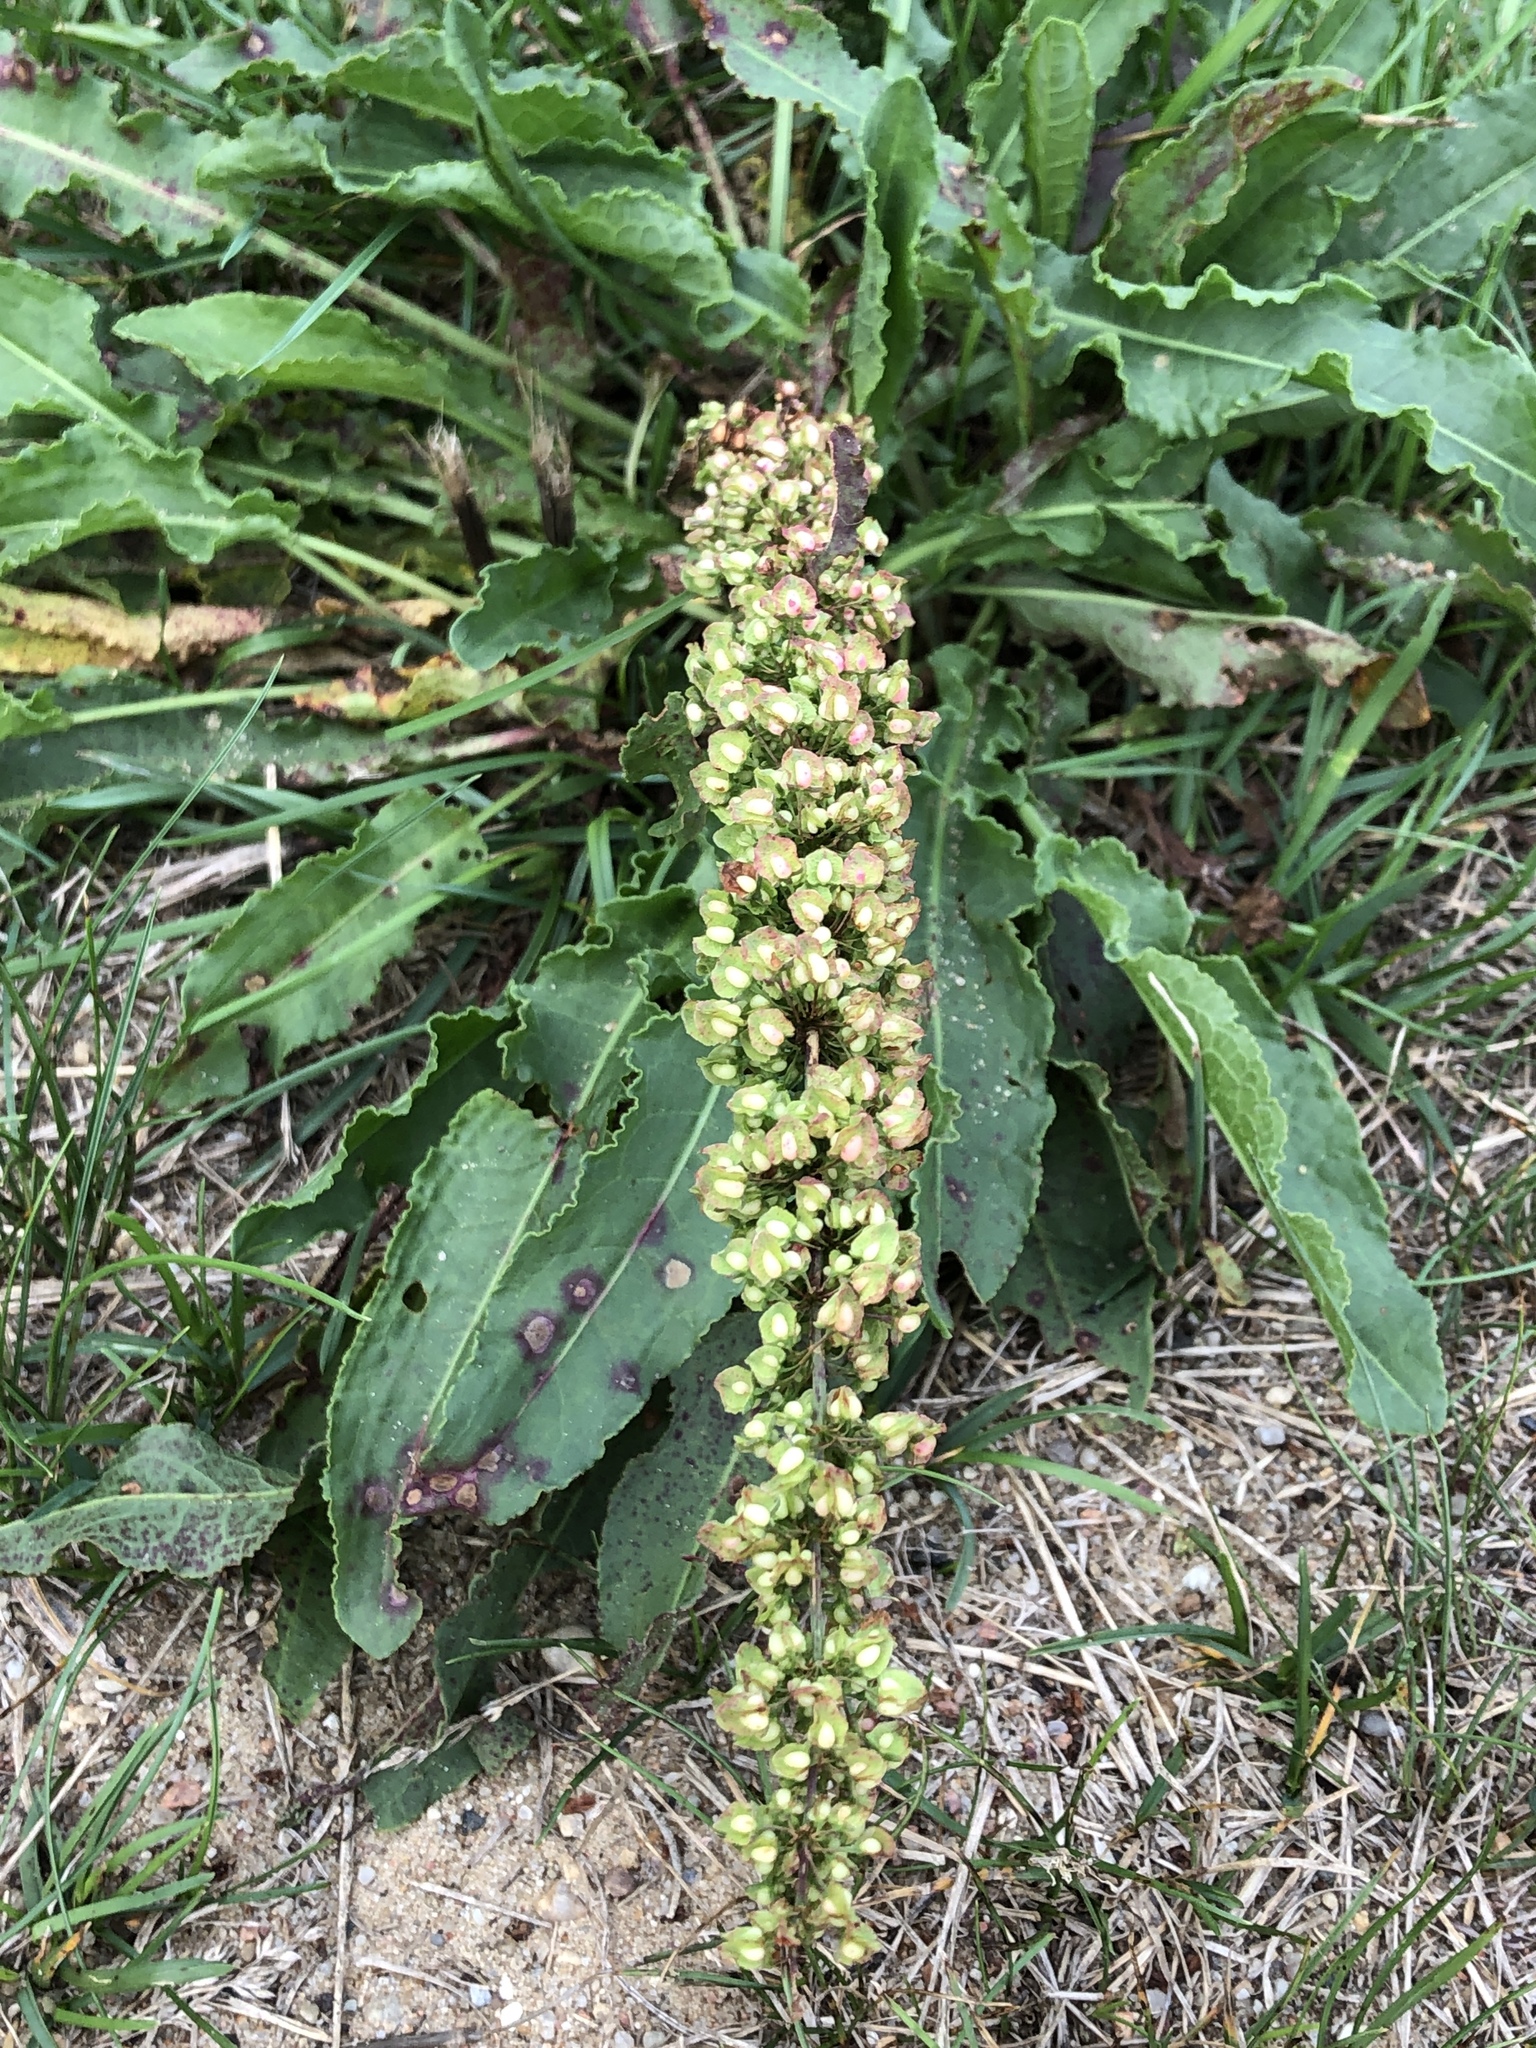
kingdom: Plantae
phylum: Tracheophyta
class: Magnoliopsida
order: Caryophyllales
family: Polygonaceae
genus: Rumex
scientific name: Rumex crispus
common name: Curled dock
